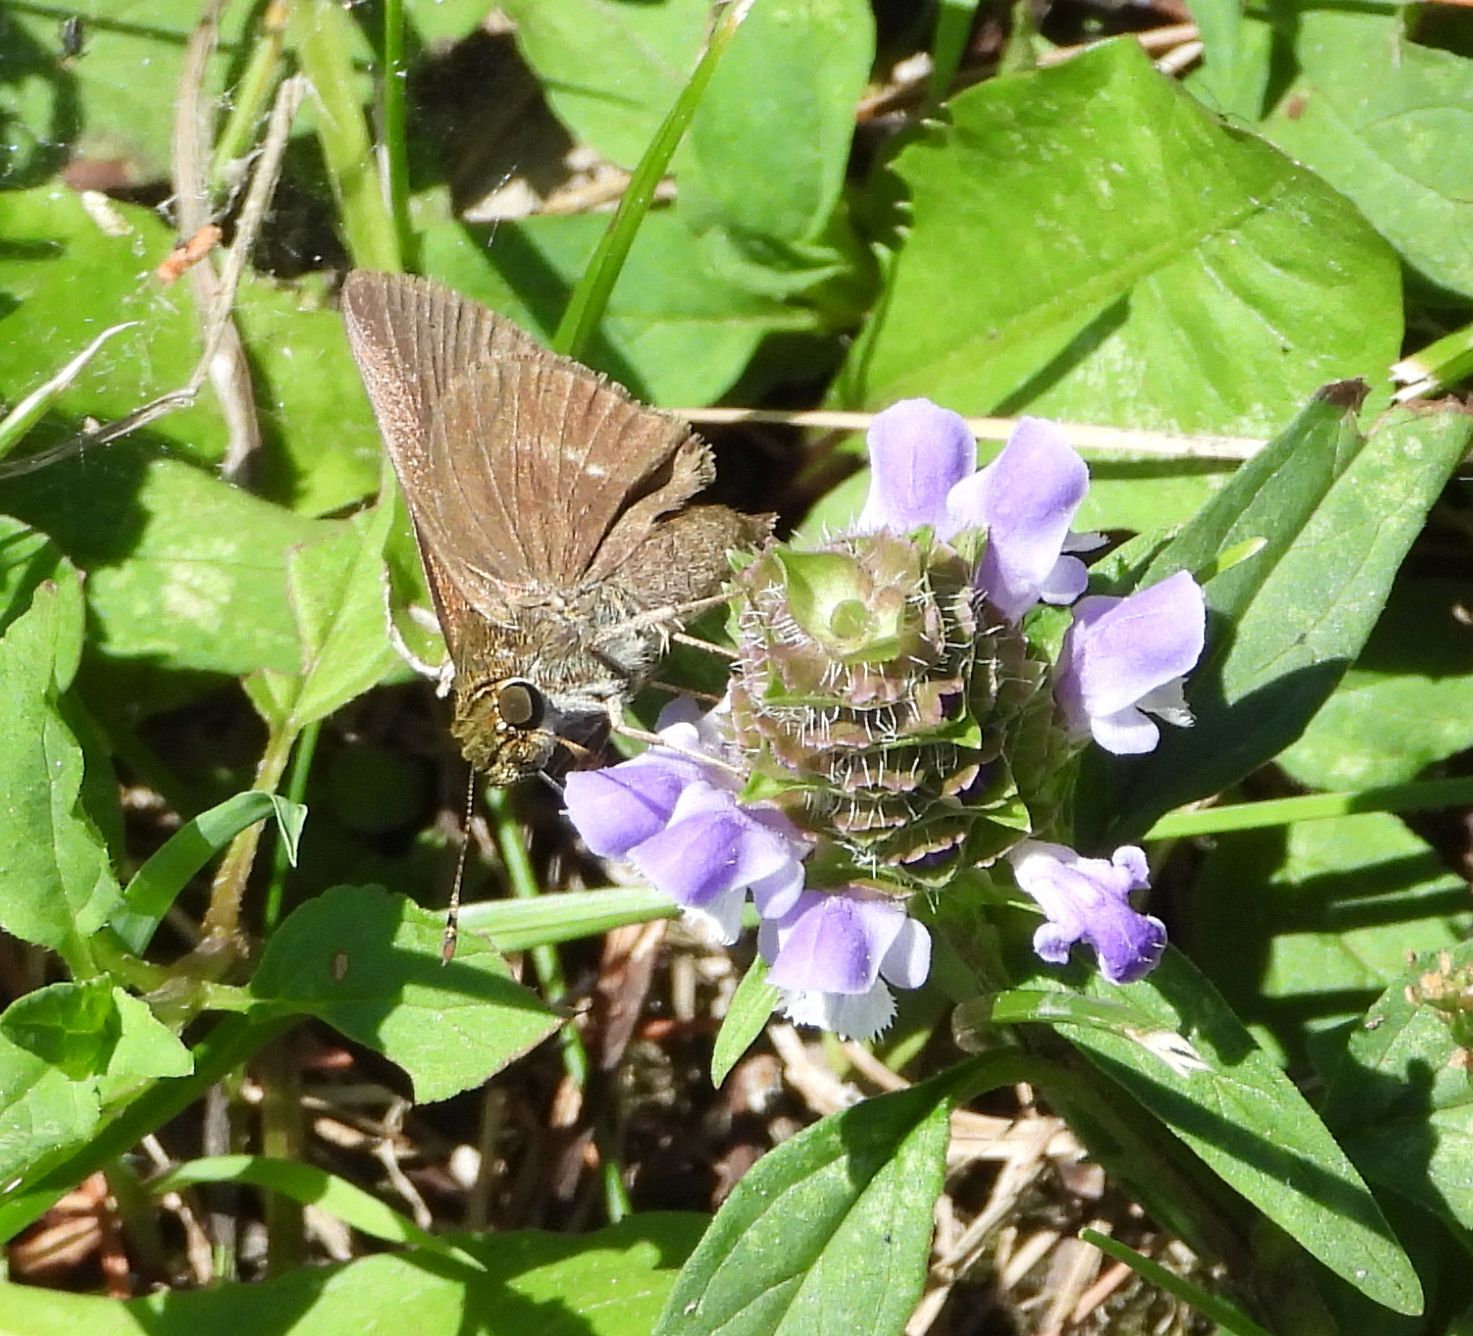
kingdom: Animalia
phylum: Arthropoda
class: Insecta
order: Lepidoptera
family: Hesperiidae
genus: Euphyes
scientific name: Euphyes vestris
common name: Dun skipper
